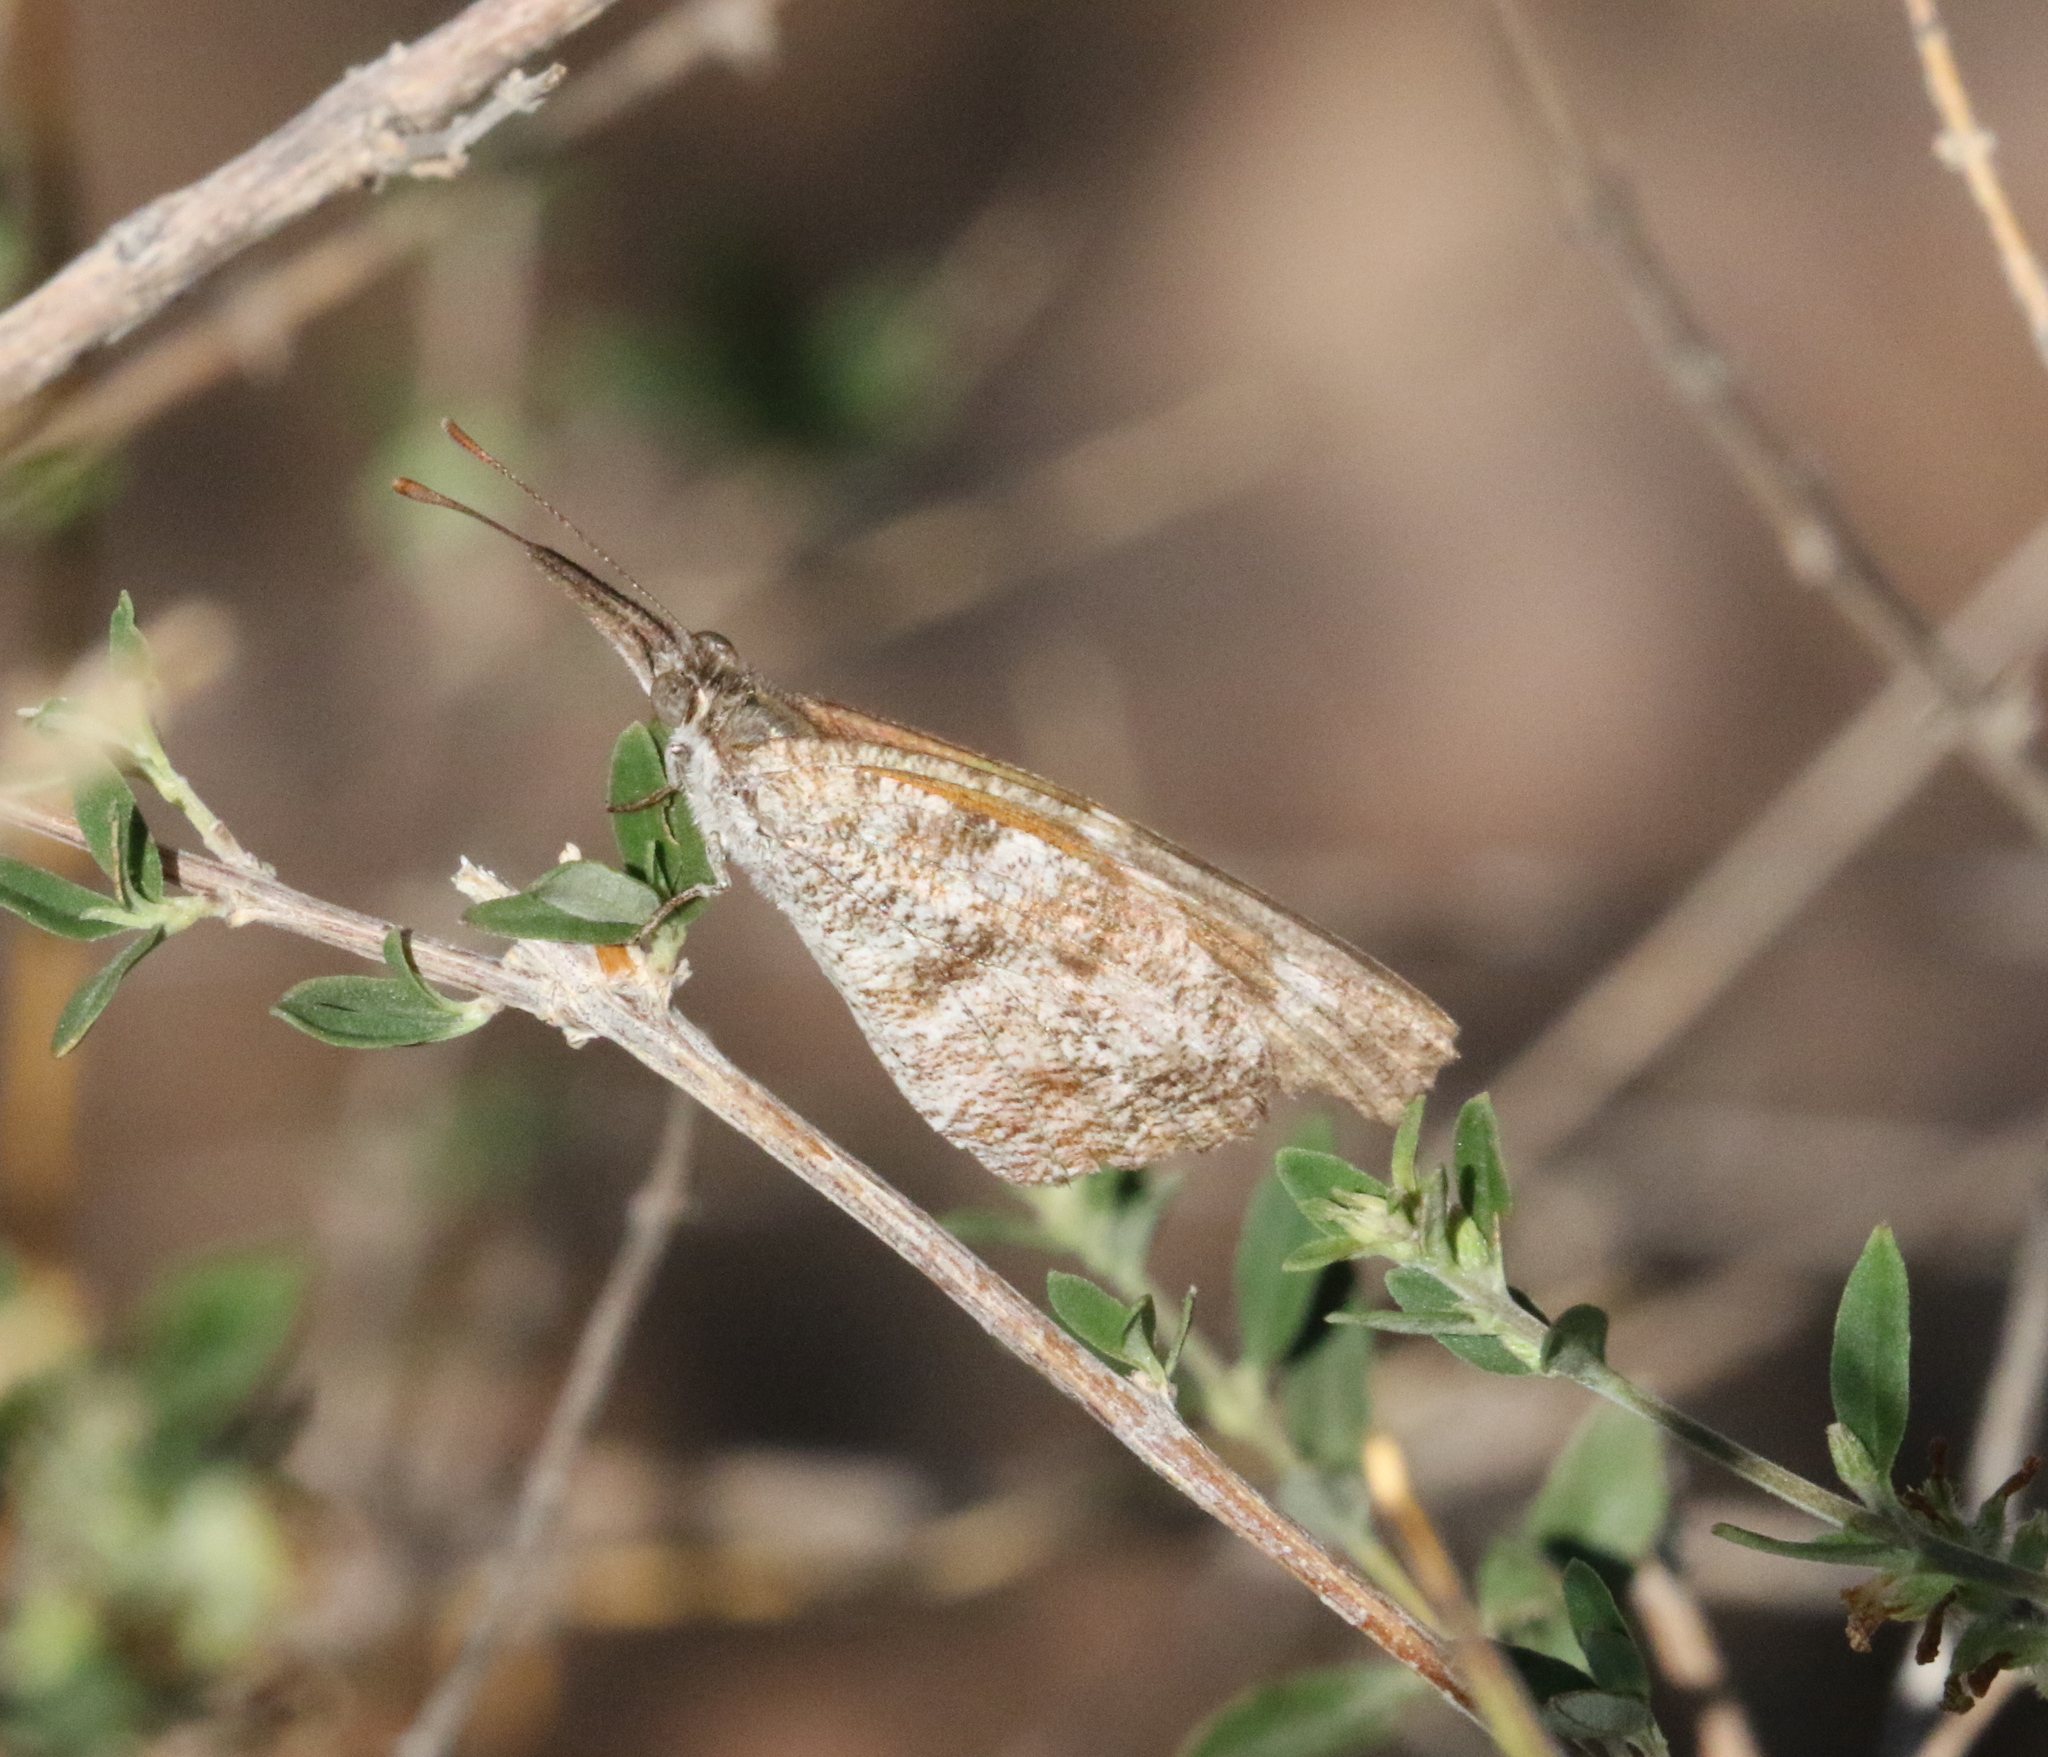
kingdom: Animalia
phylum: Arthropoda
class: Insecta
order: Lepidoptera
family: Nymphalidae
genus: Libytheana
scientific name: Libytheana carinenta
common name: American snout
